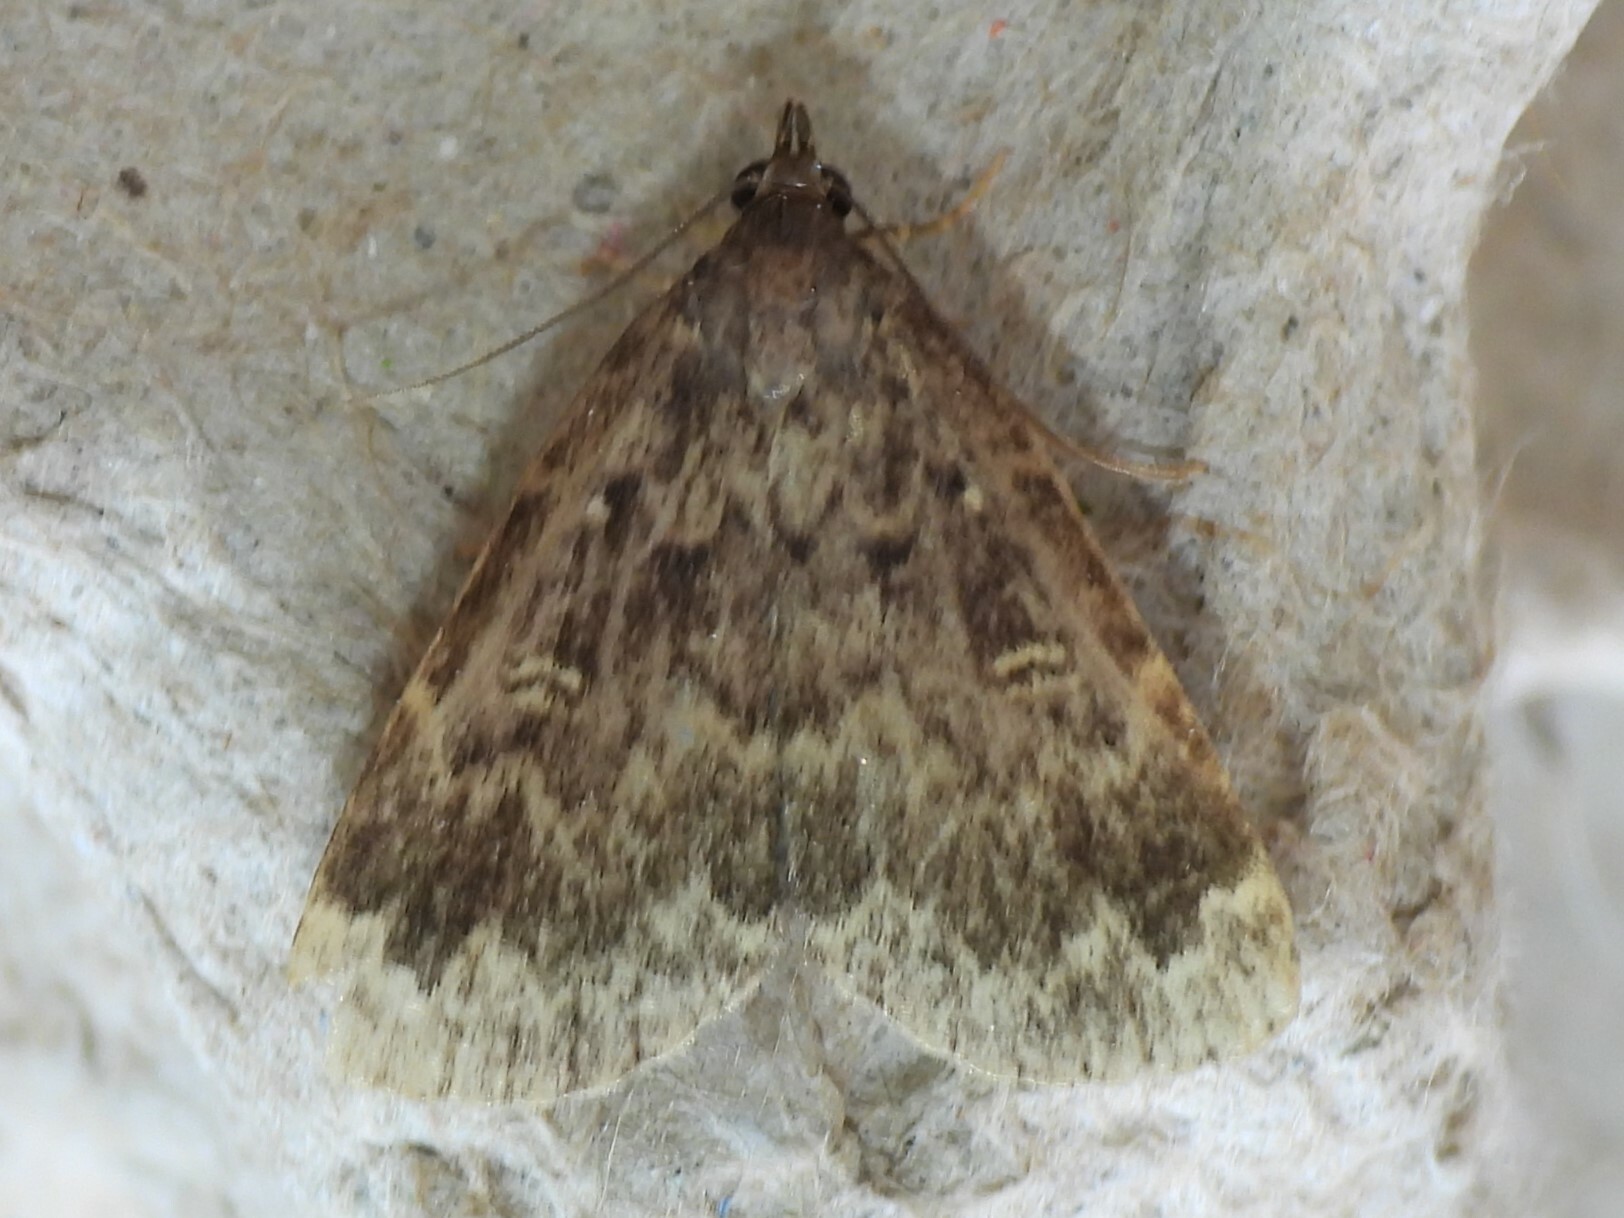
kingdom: Animalia
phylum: Arthropoda
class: Insecta
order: Lepidoptera
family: Erebidae
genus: Idia
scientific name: Idia lubricalis
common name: Twin-striped tabby
